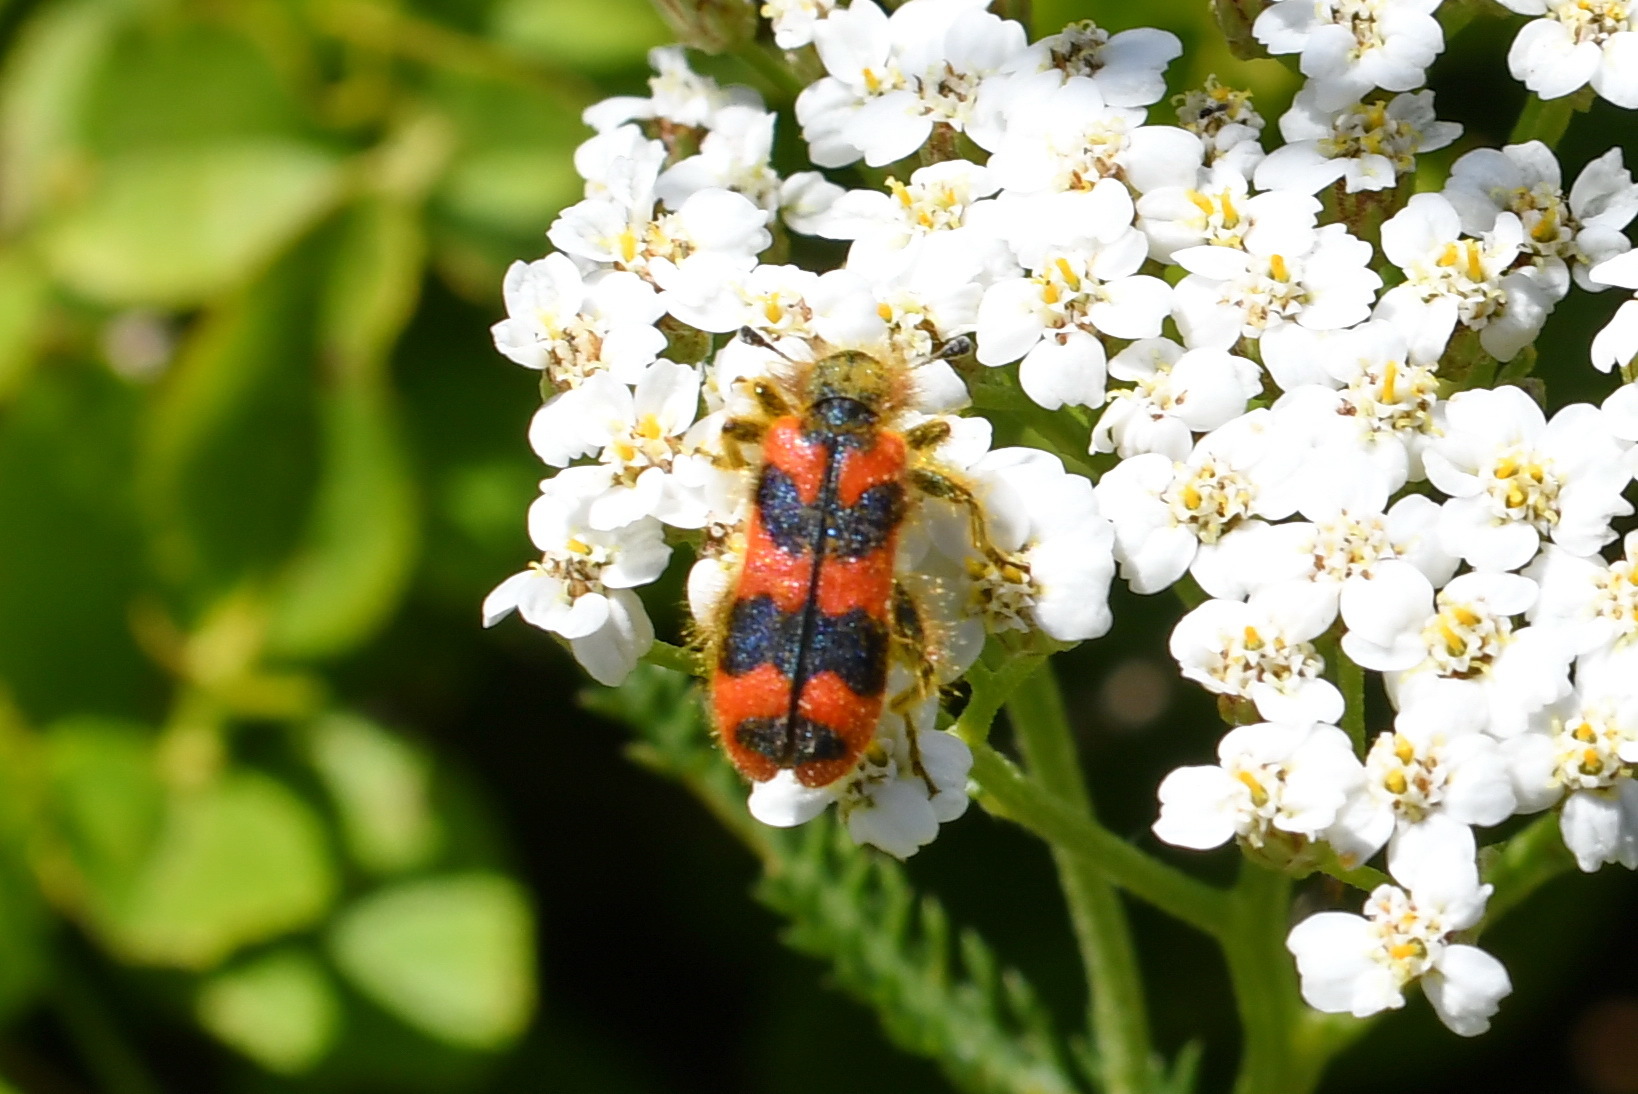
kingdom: Animalia
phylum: Arthropoda
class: Insecta
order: Coleoptera
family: Cleridae
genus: Trichodes
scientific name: Trichodes alvearius
